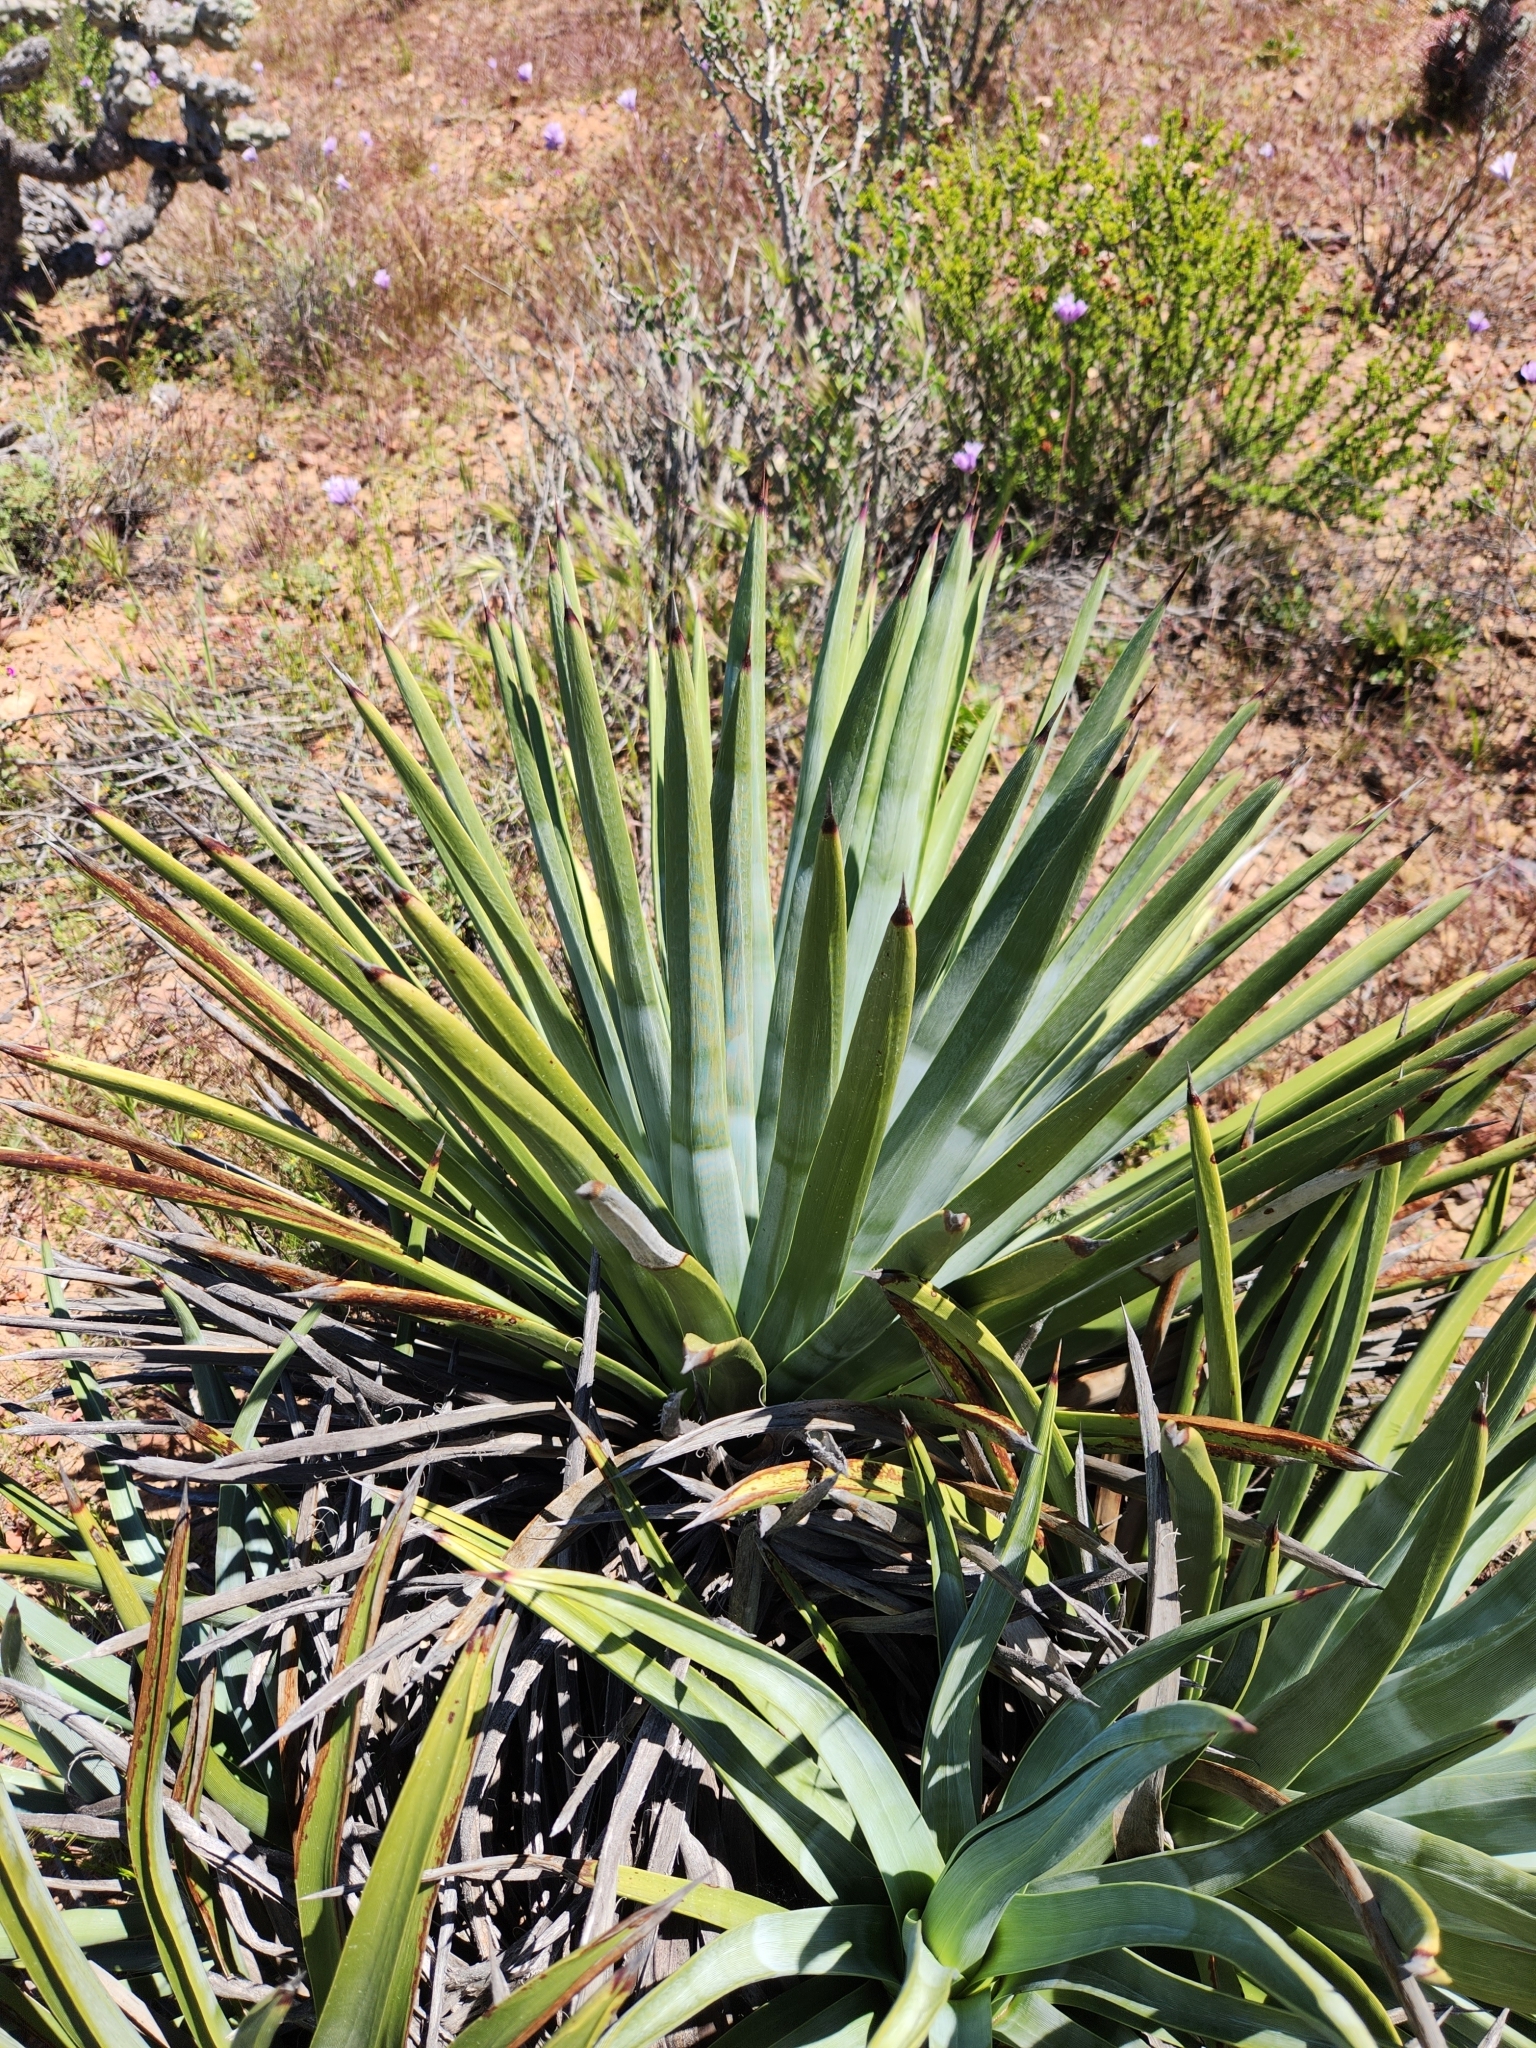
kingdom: Plantae
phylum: Tracheophyta
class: Liliopsida
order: Asparagales
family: Asparagaceae
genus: Hesperoyucca
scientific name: Hesperoyucca whipplei
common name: Our lord's-candle
